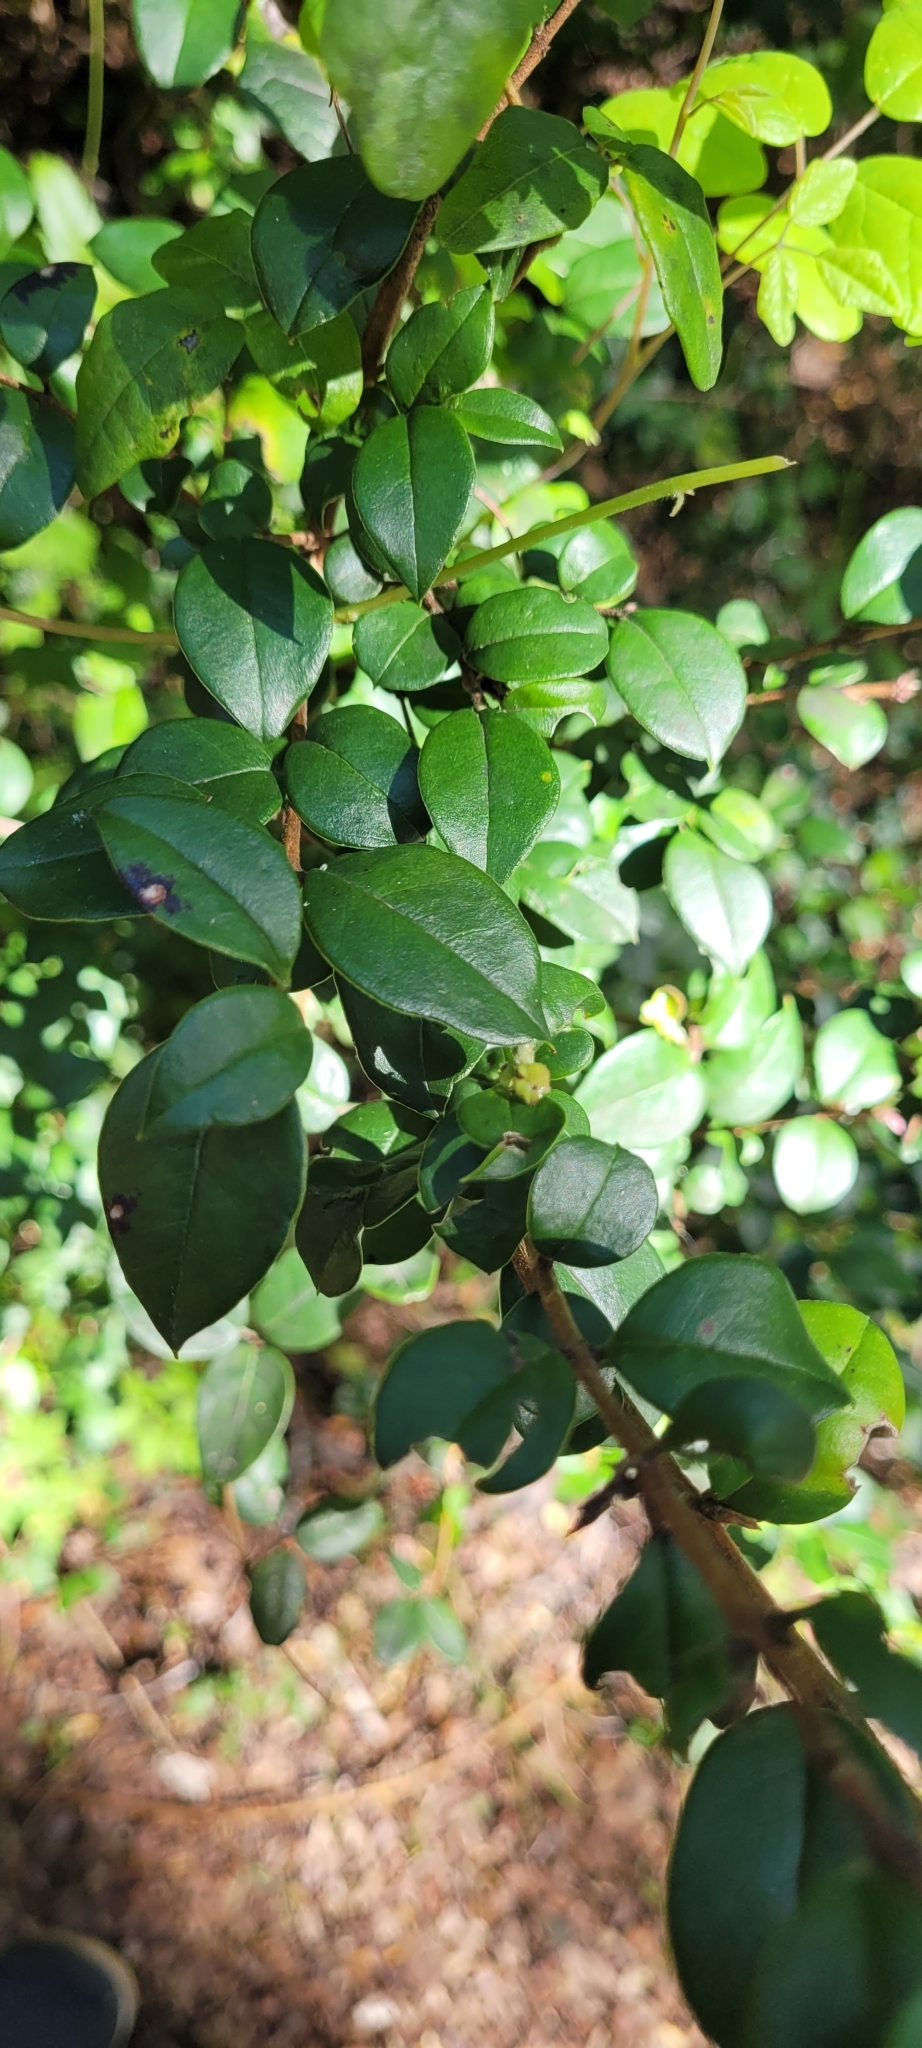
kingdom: Plantae
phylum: Tracheophyta
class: Magnoliopsida
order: Myrtales
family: Myrtaceae
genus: Luma
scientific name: Luma apiculata
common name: Chilean myrtle
